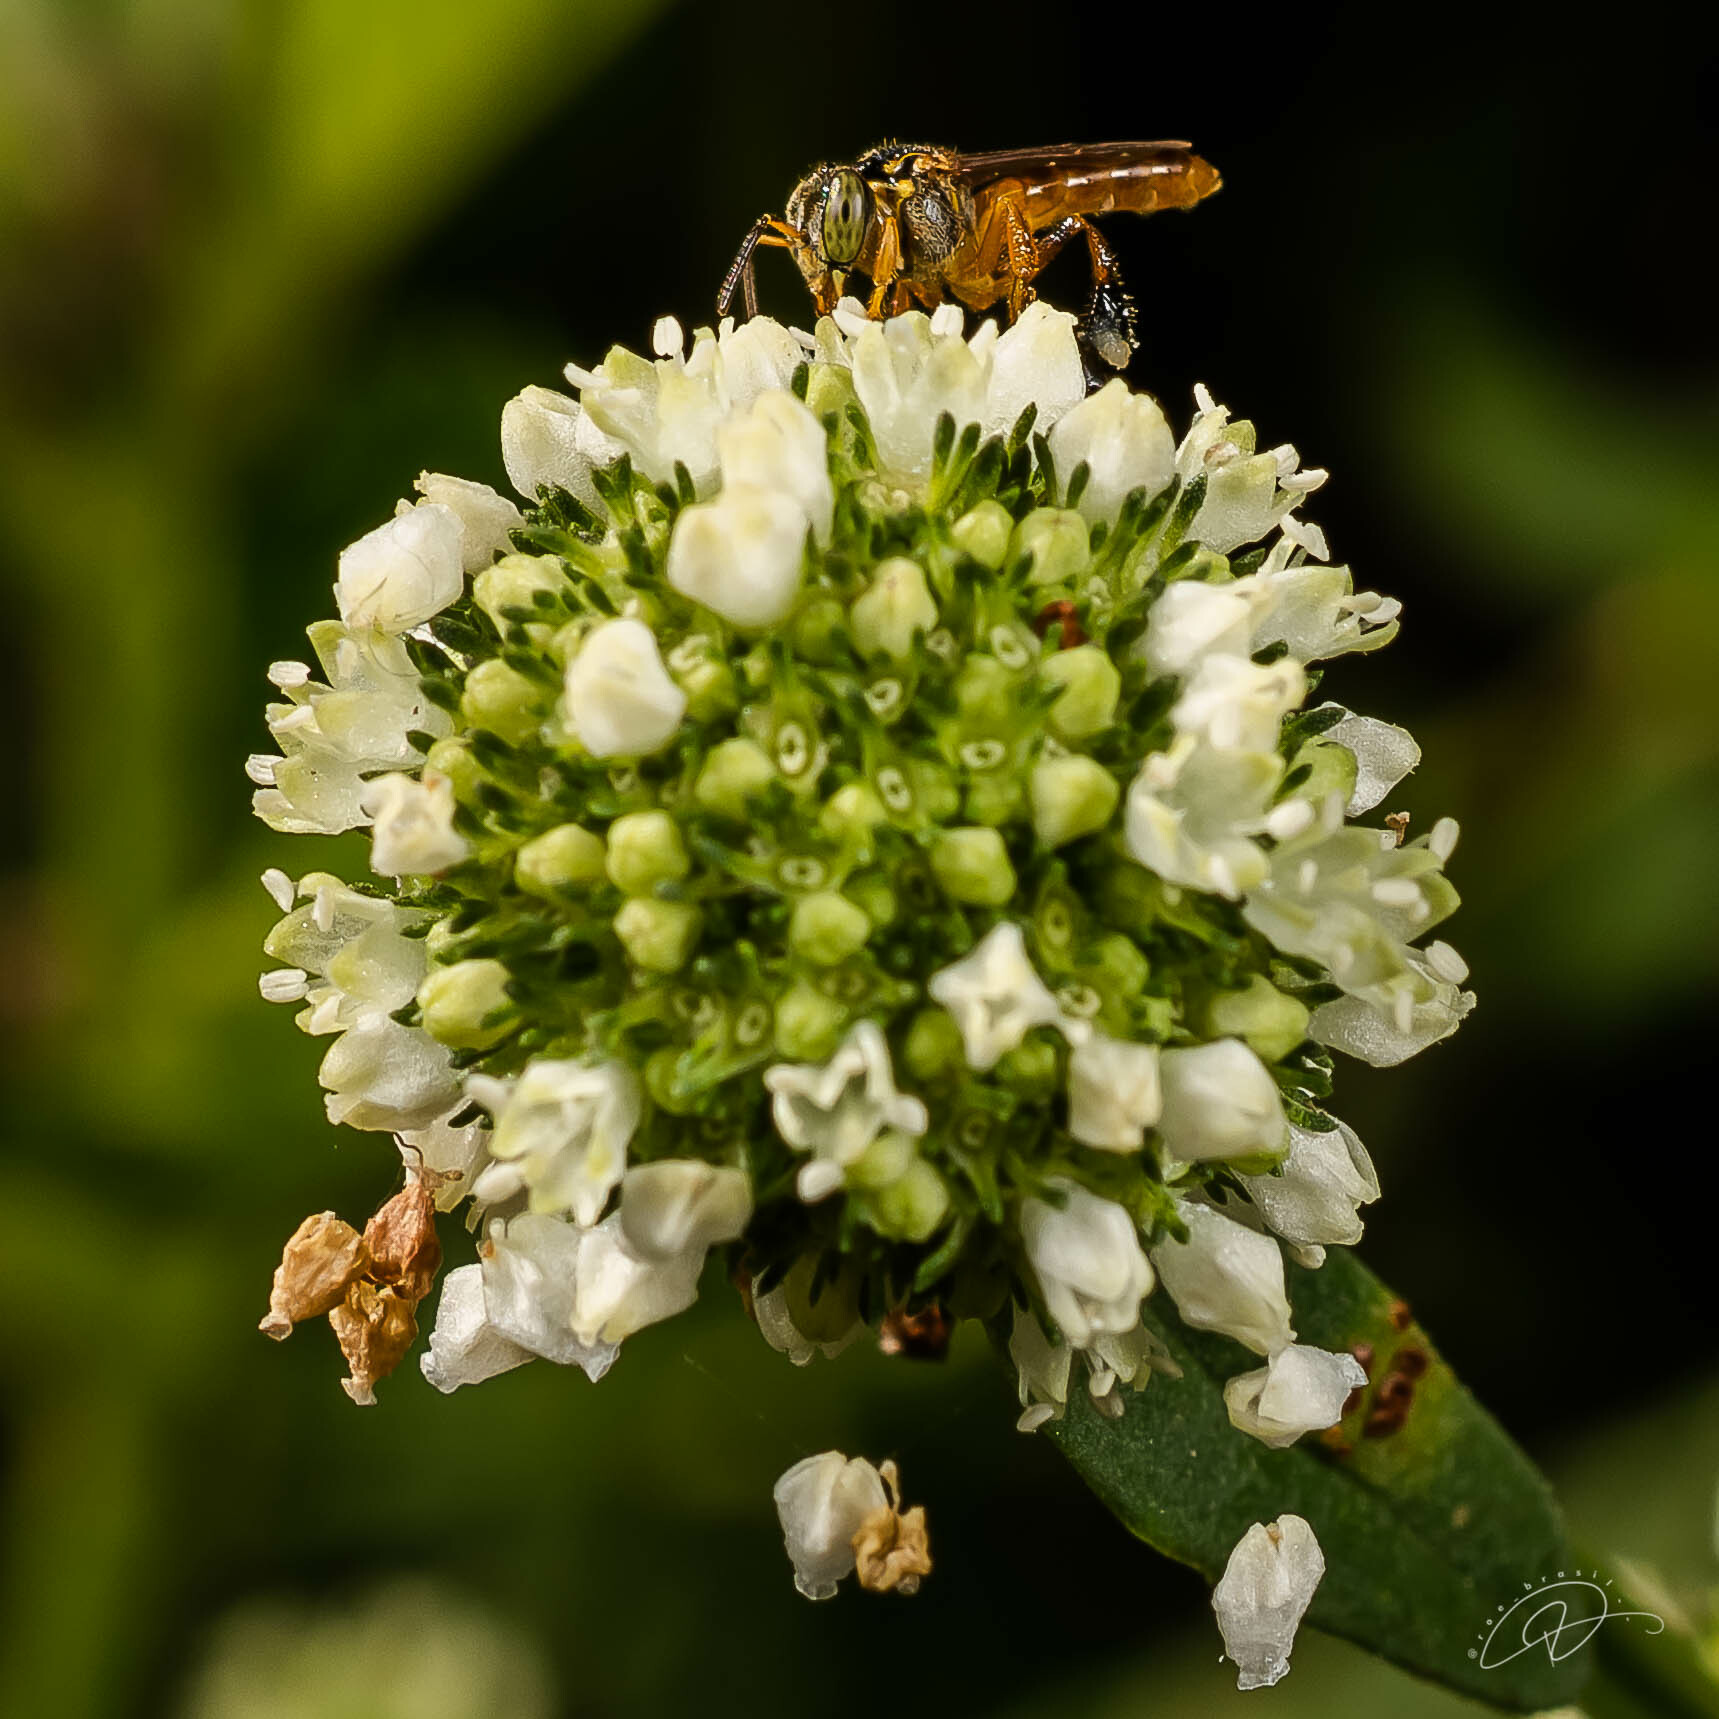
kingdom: Animalia
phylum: Arthropoda
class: Insecta
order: Hymenoptera
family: Apidae
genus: Tetragonisca
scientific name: Tetragonisca angustula
